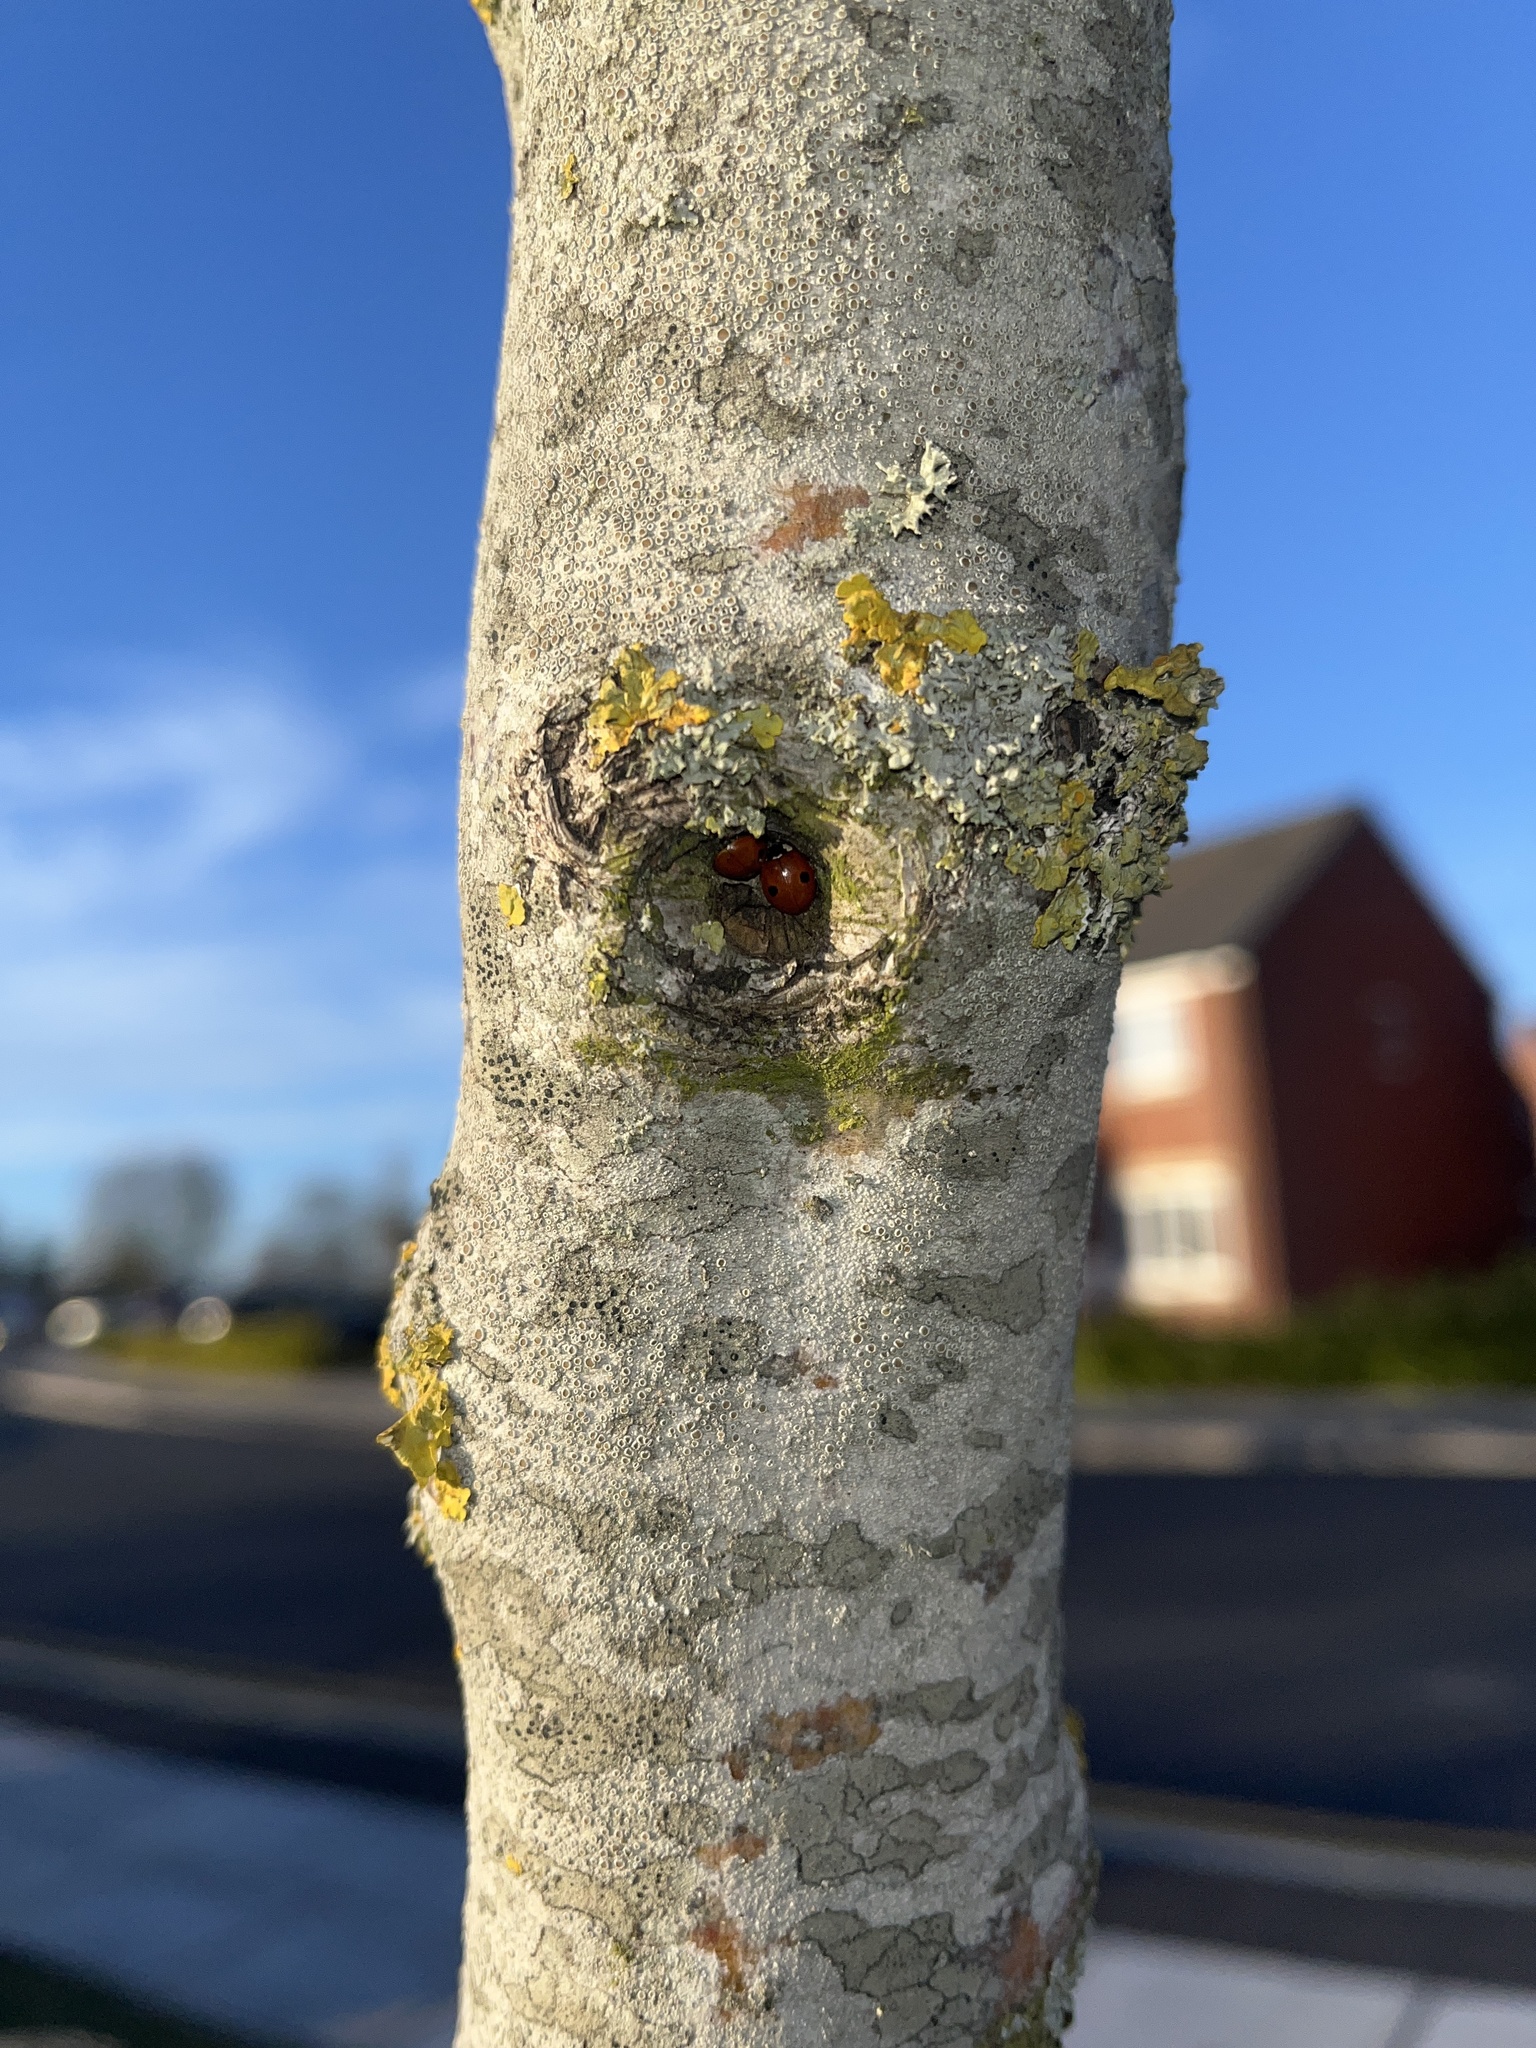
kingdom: Animalia
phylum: Arthropoda
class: Insecta
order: Coleoptera
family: Coccinellidae
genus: Adalia
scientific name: Adalia bipunctata
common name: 2-spot ladybird
